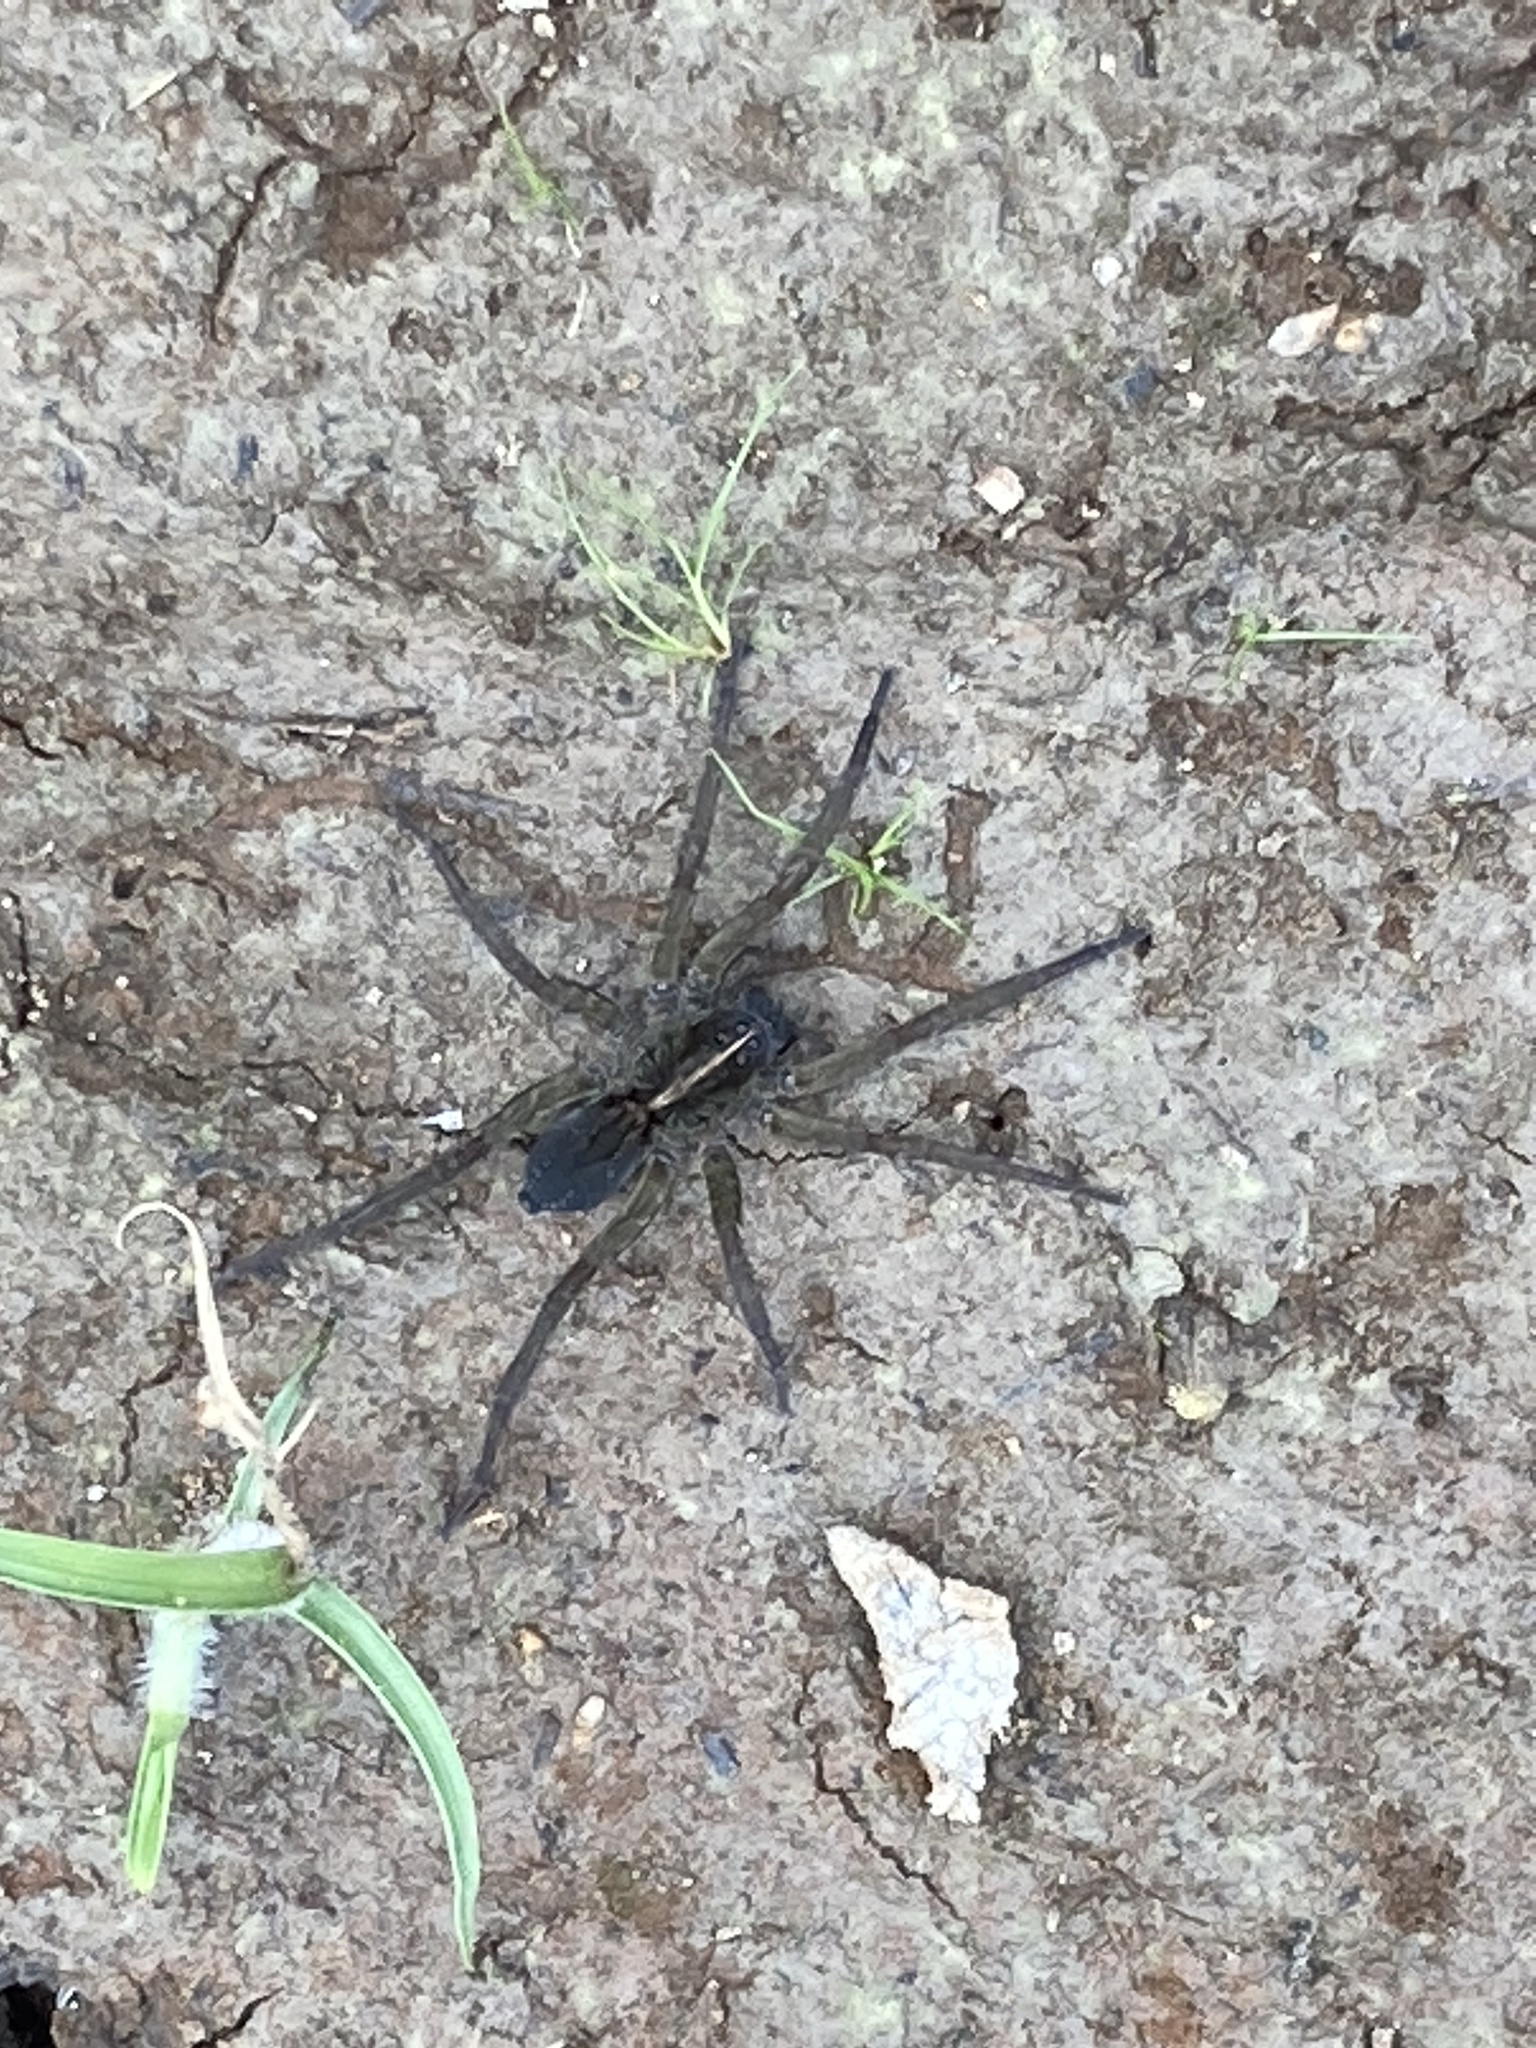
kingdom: Animalia
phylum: Arthropoda
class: Arachnida
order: Araneae
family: Lycosidae
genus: Tigrosa
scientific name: Tigrosa georgicola
